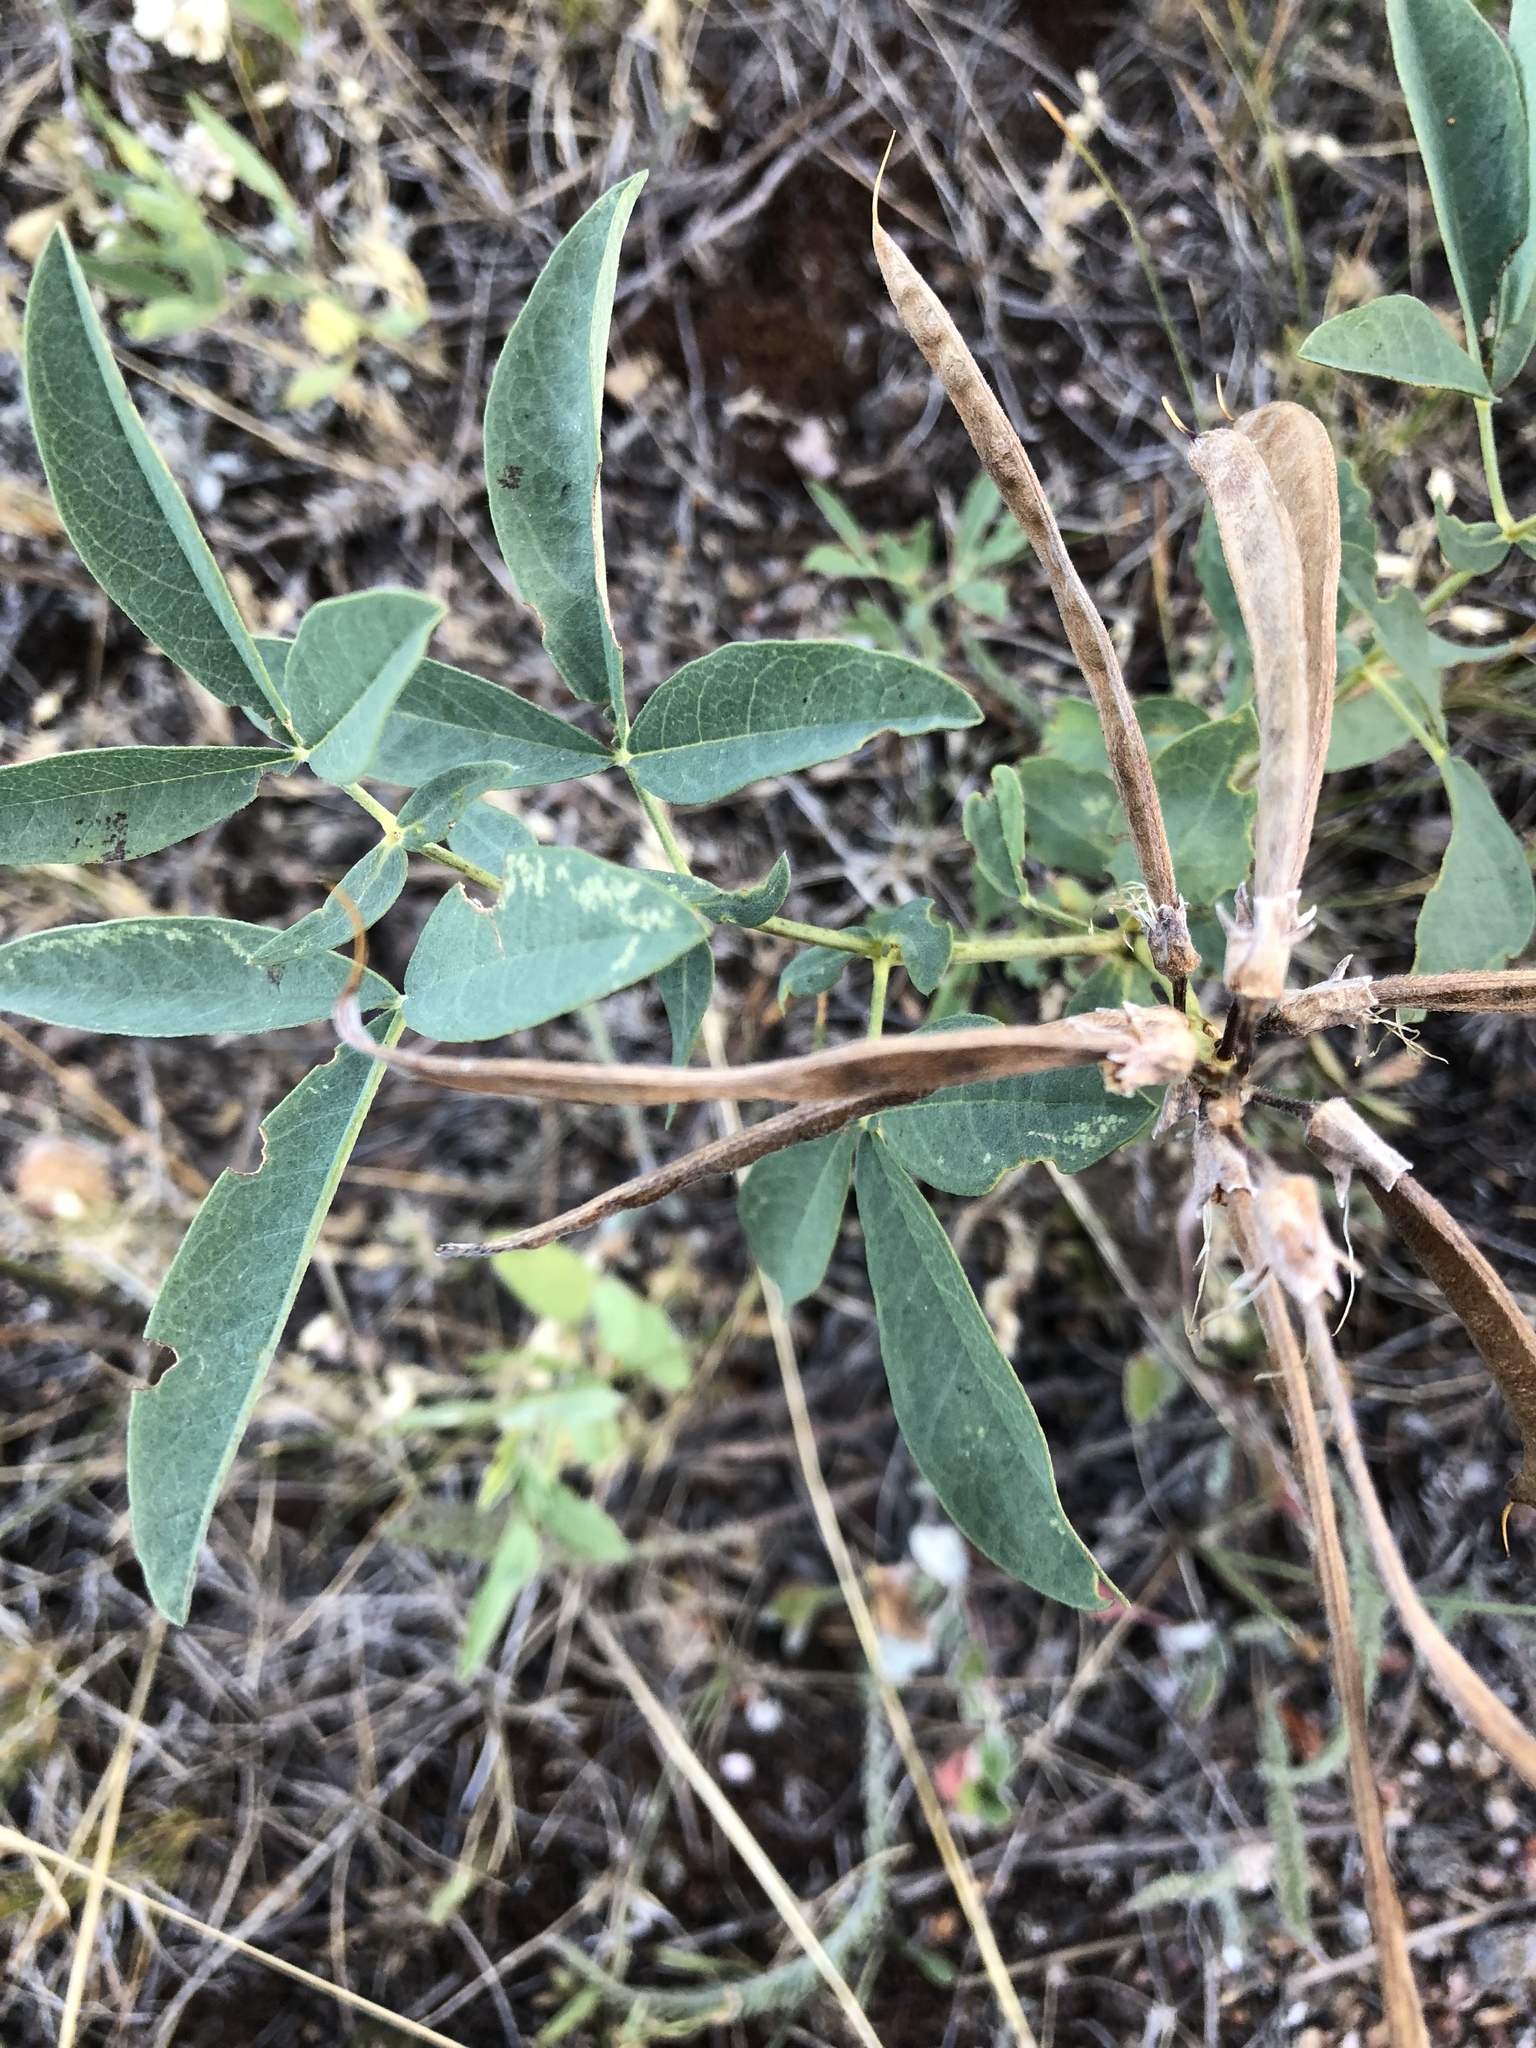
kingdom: Plantae
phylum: Tracheophyta
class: Magnoliopsida
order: Fabales
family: Fabaceae
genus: Thermopsis
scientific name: Thermopsis rhombifolia
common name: Circle-pod-pea
